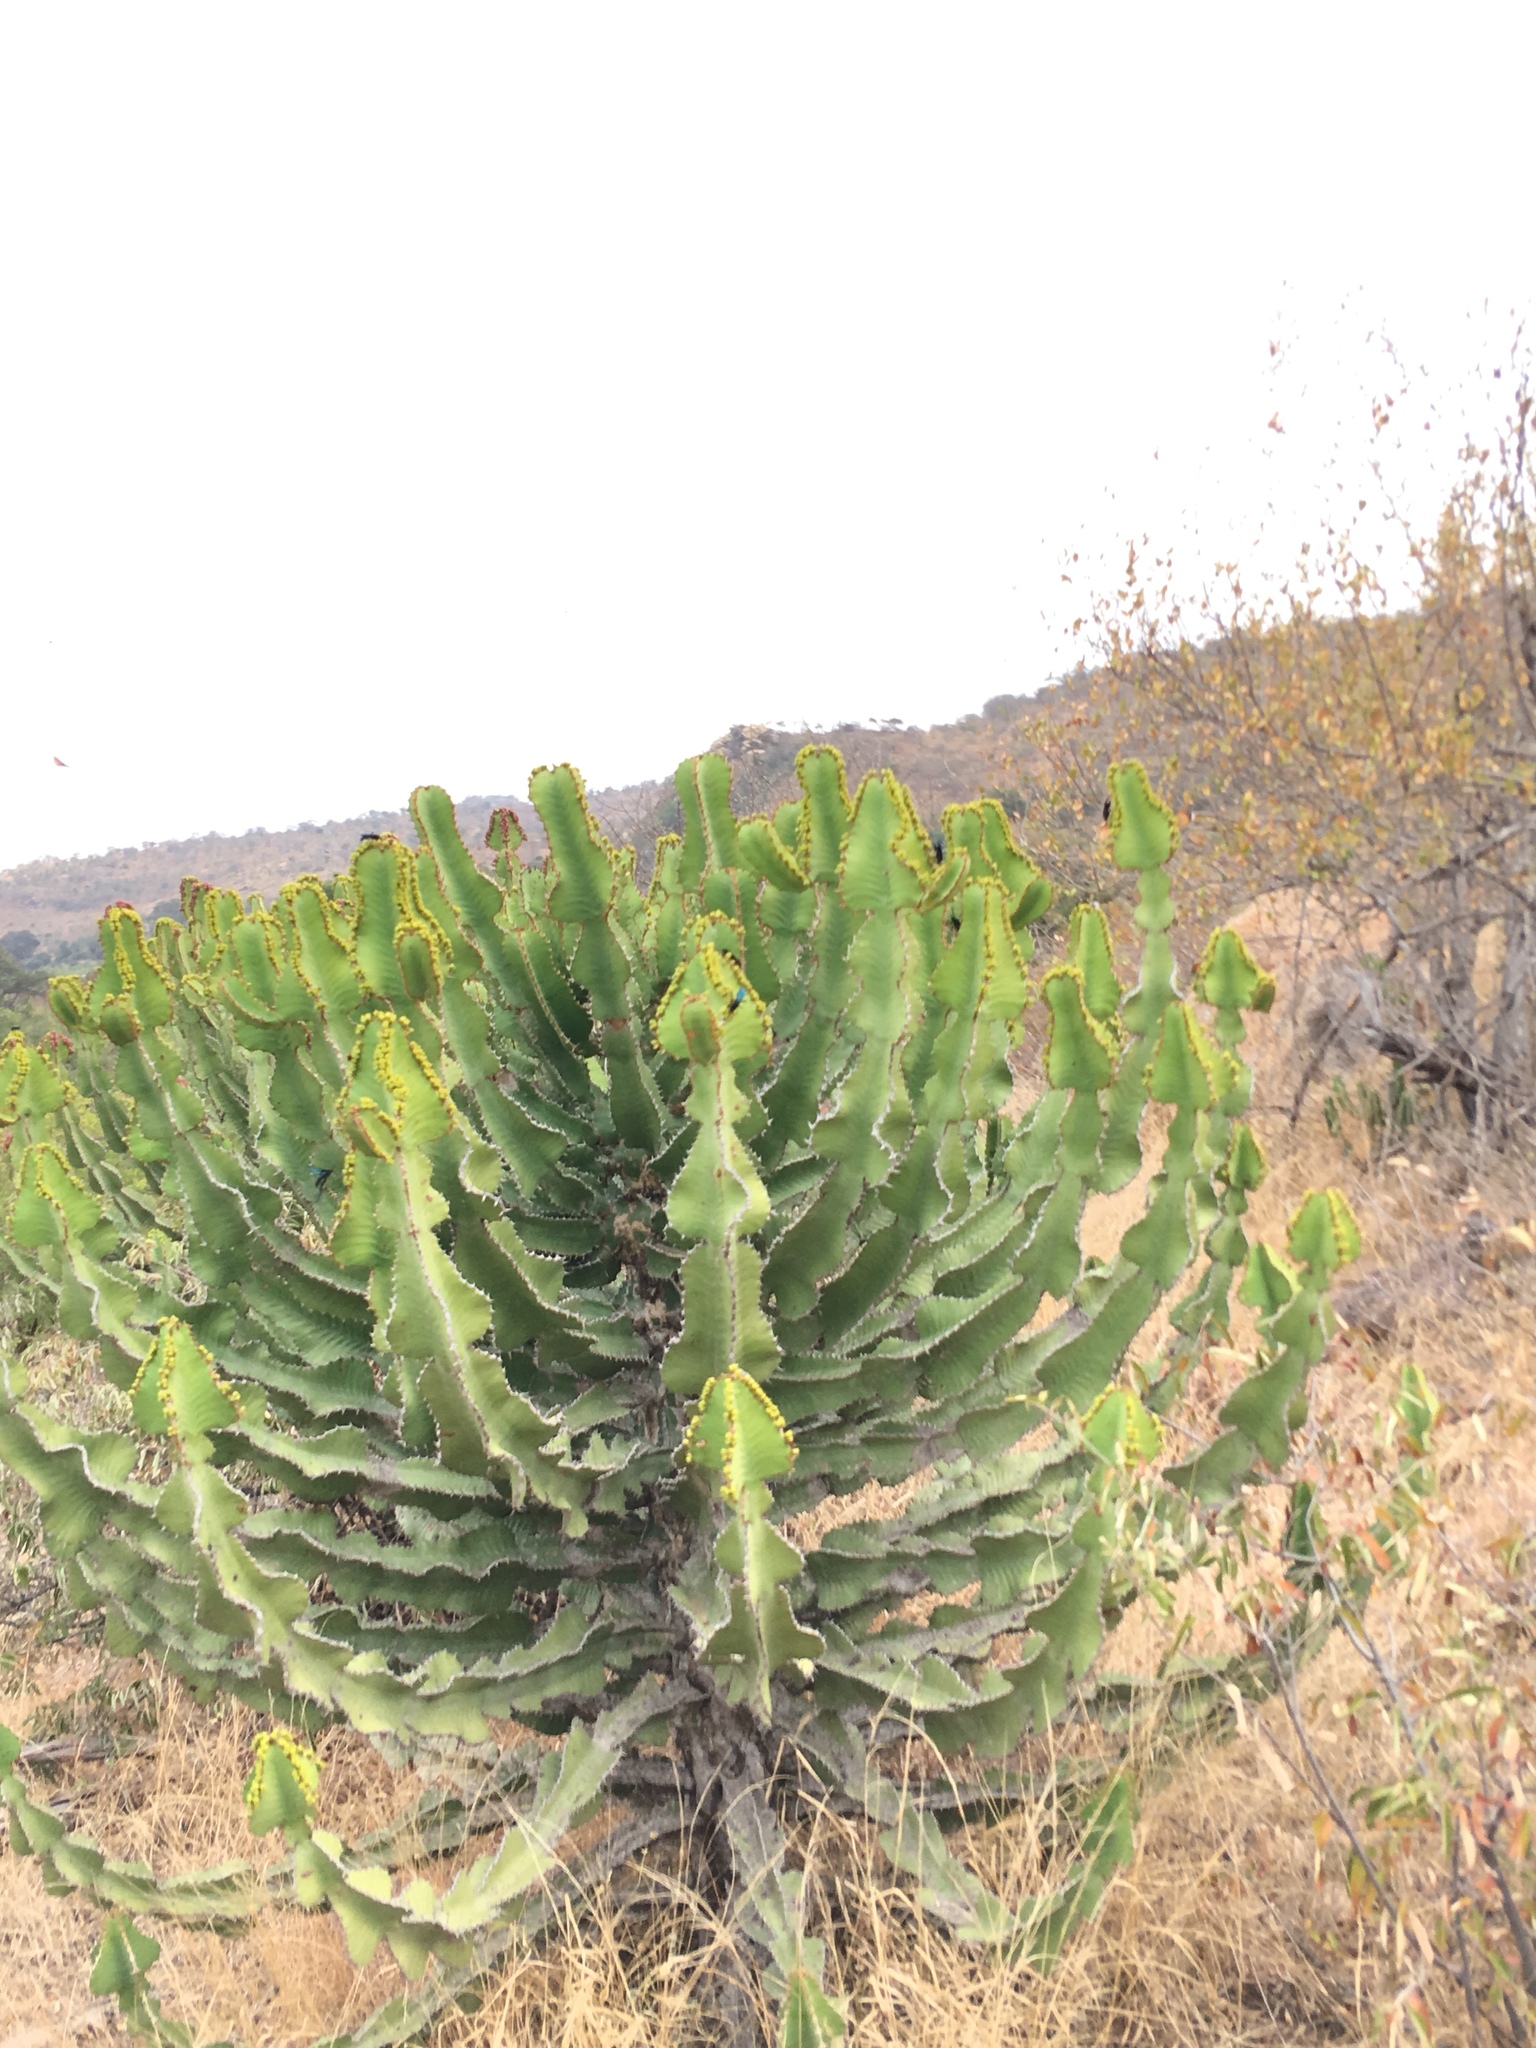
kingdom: Plantae
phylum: Tracheophyta
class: Magnoliopsida
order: Malpighiales
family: Euphorbiaceae
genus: Euphorbia
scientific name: Euphorbia cooperi
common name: Candelabra tree
